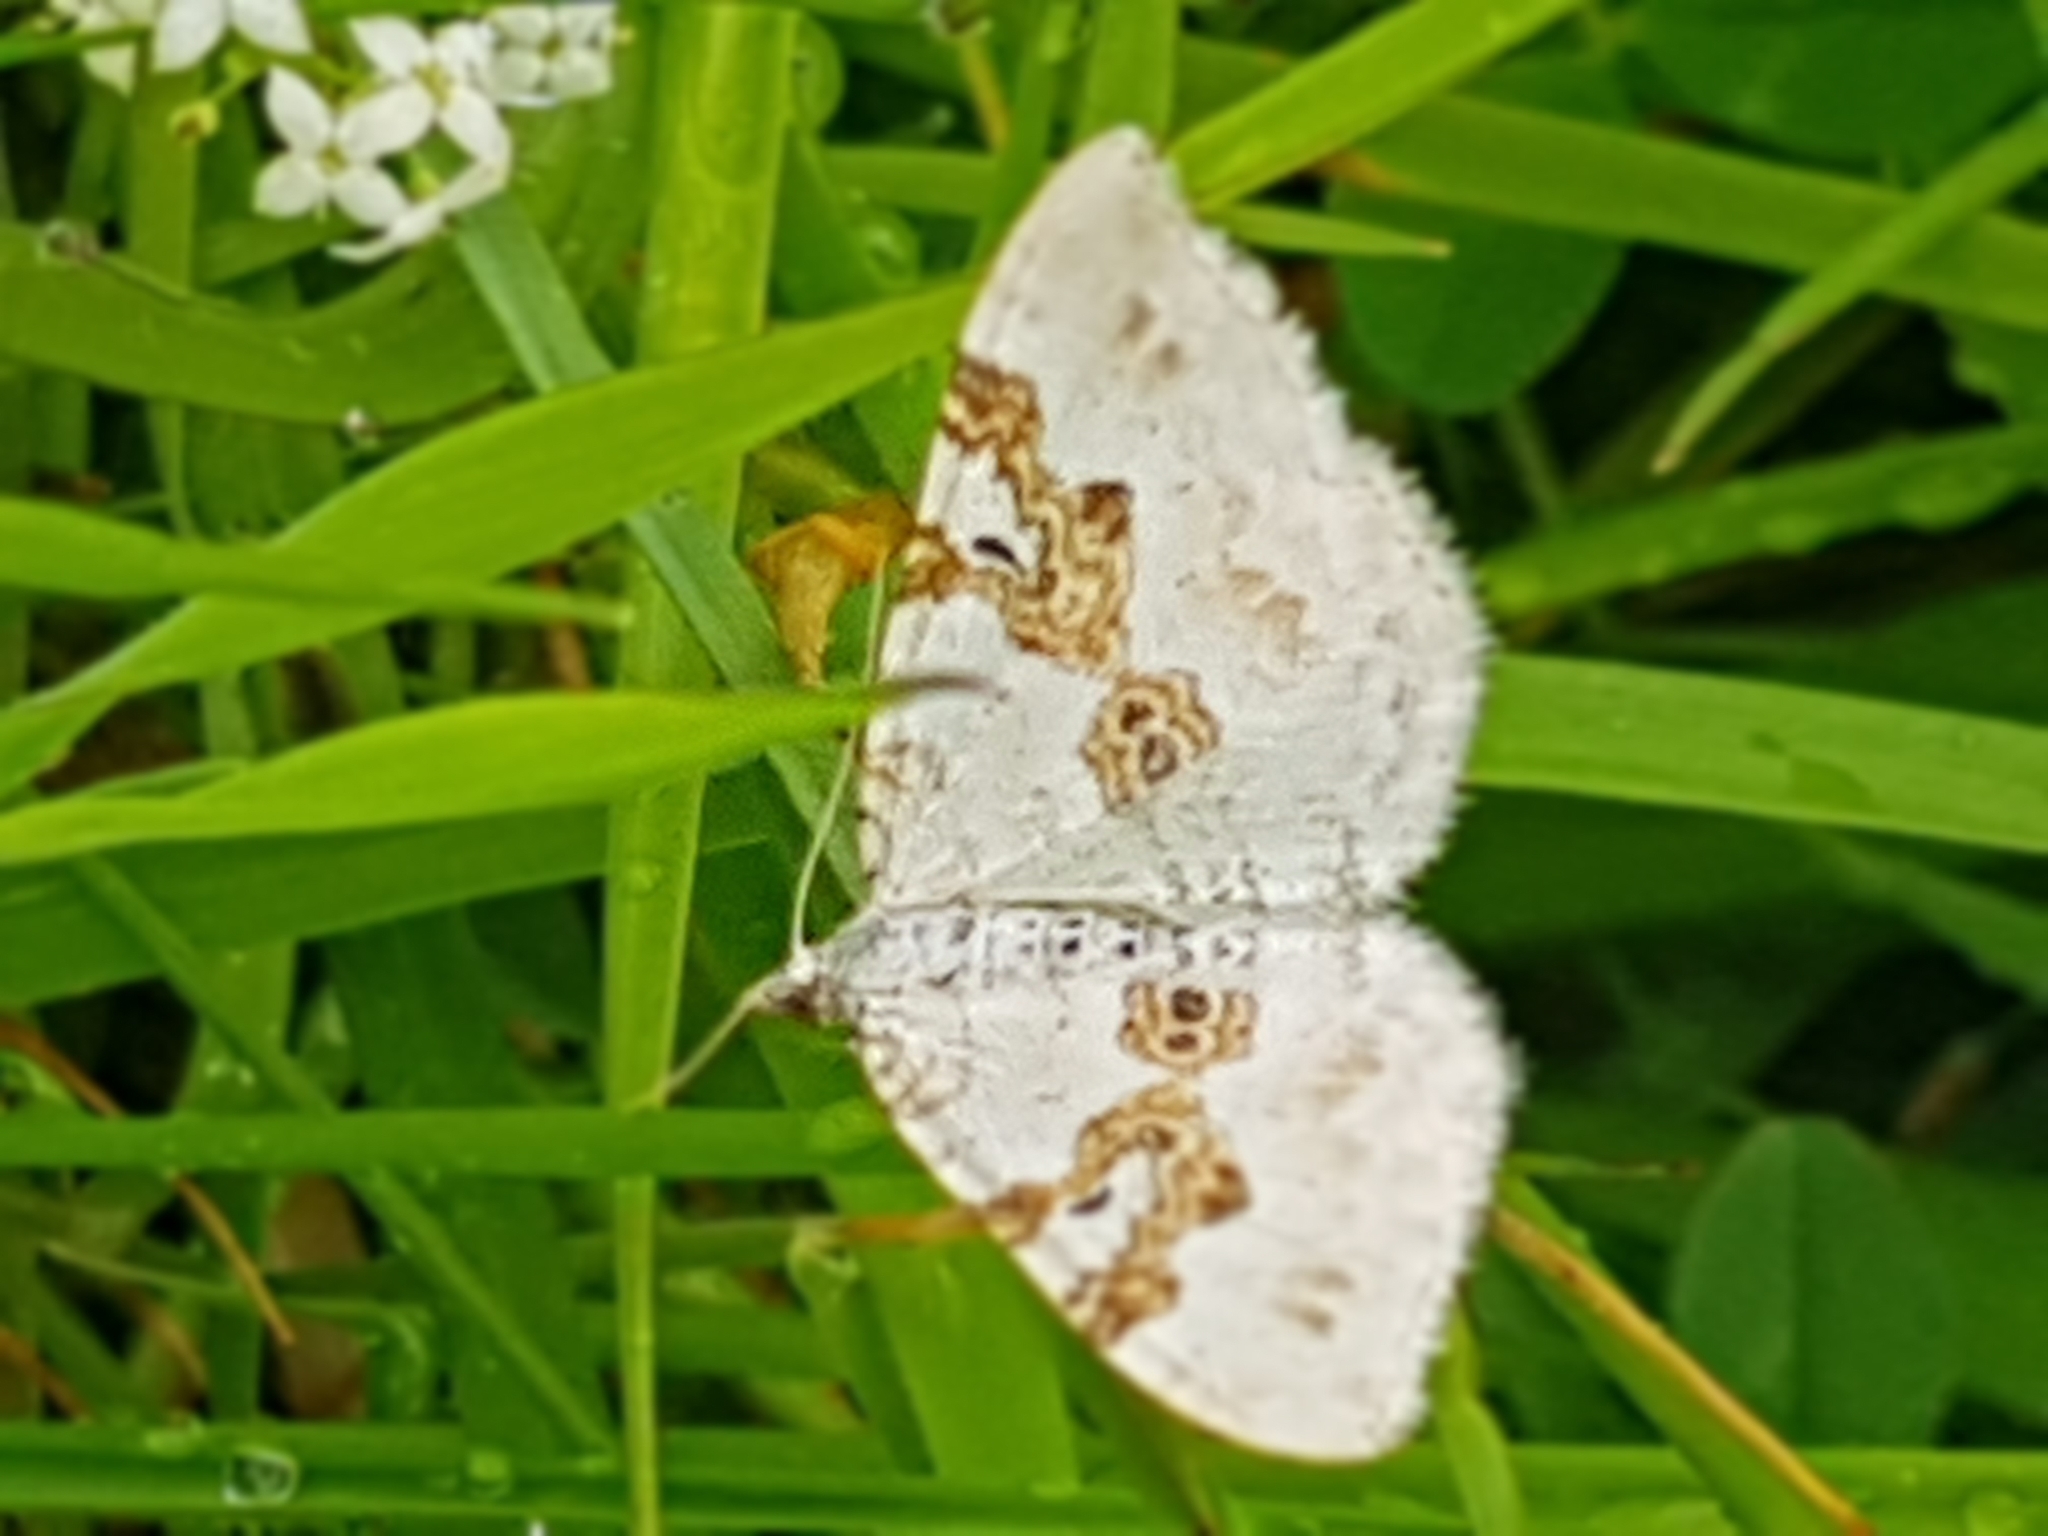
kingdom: Animalia
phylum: Arthropoda
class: Insecta
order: Lepidoptera
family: Geometridae
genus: Xanthorhoe
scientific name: Xanthorhoe montanata
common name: Silver-ground carpet
